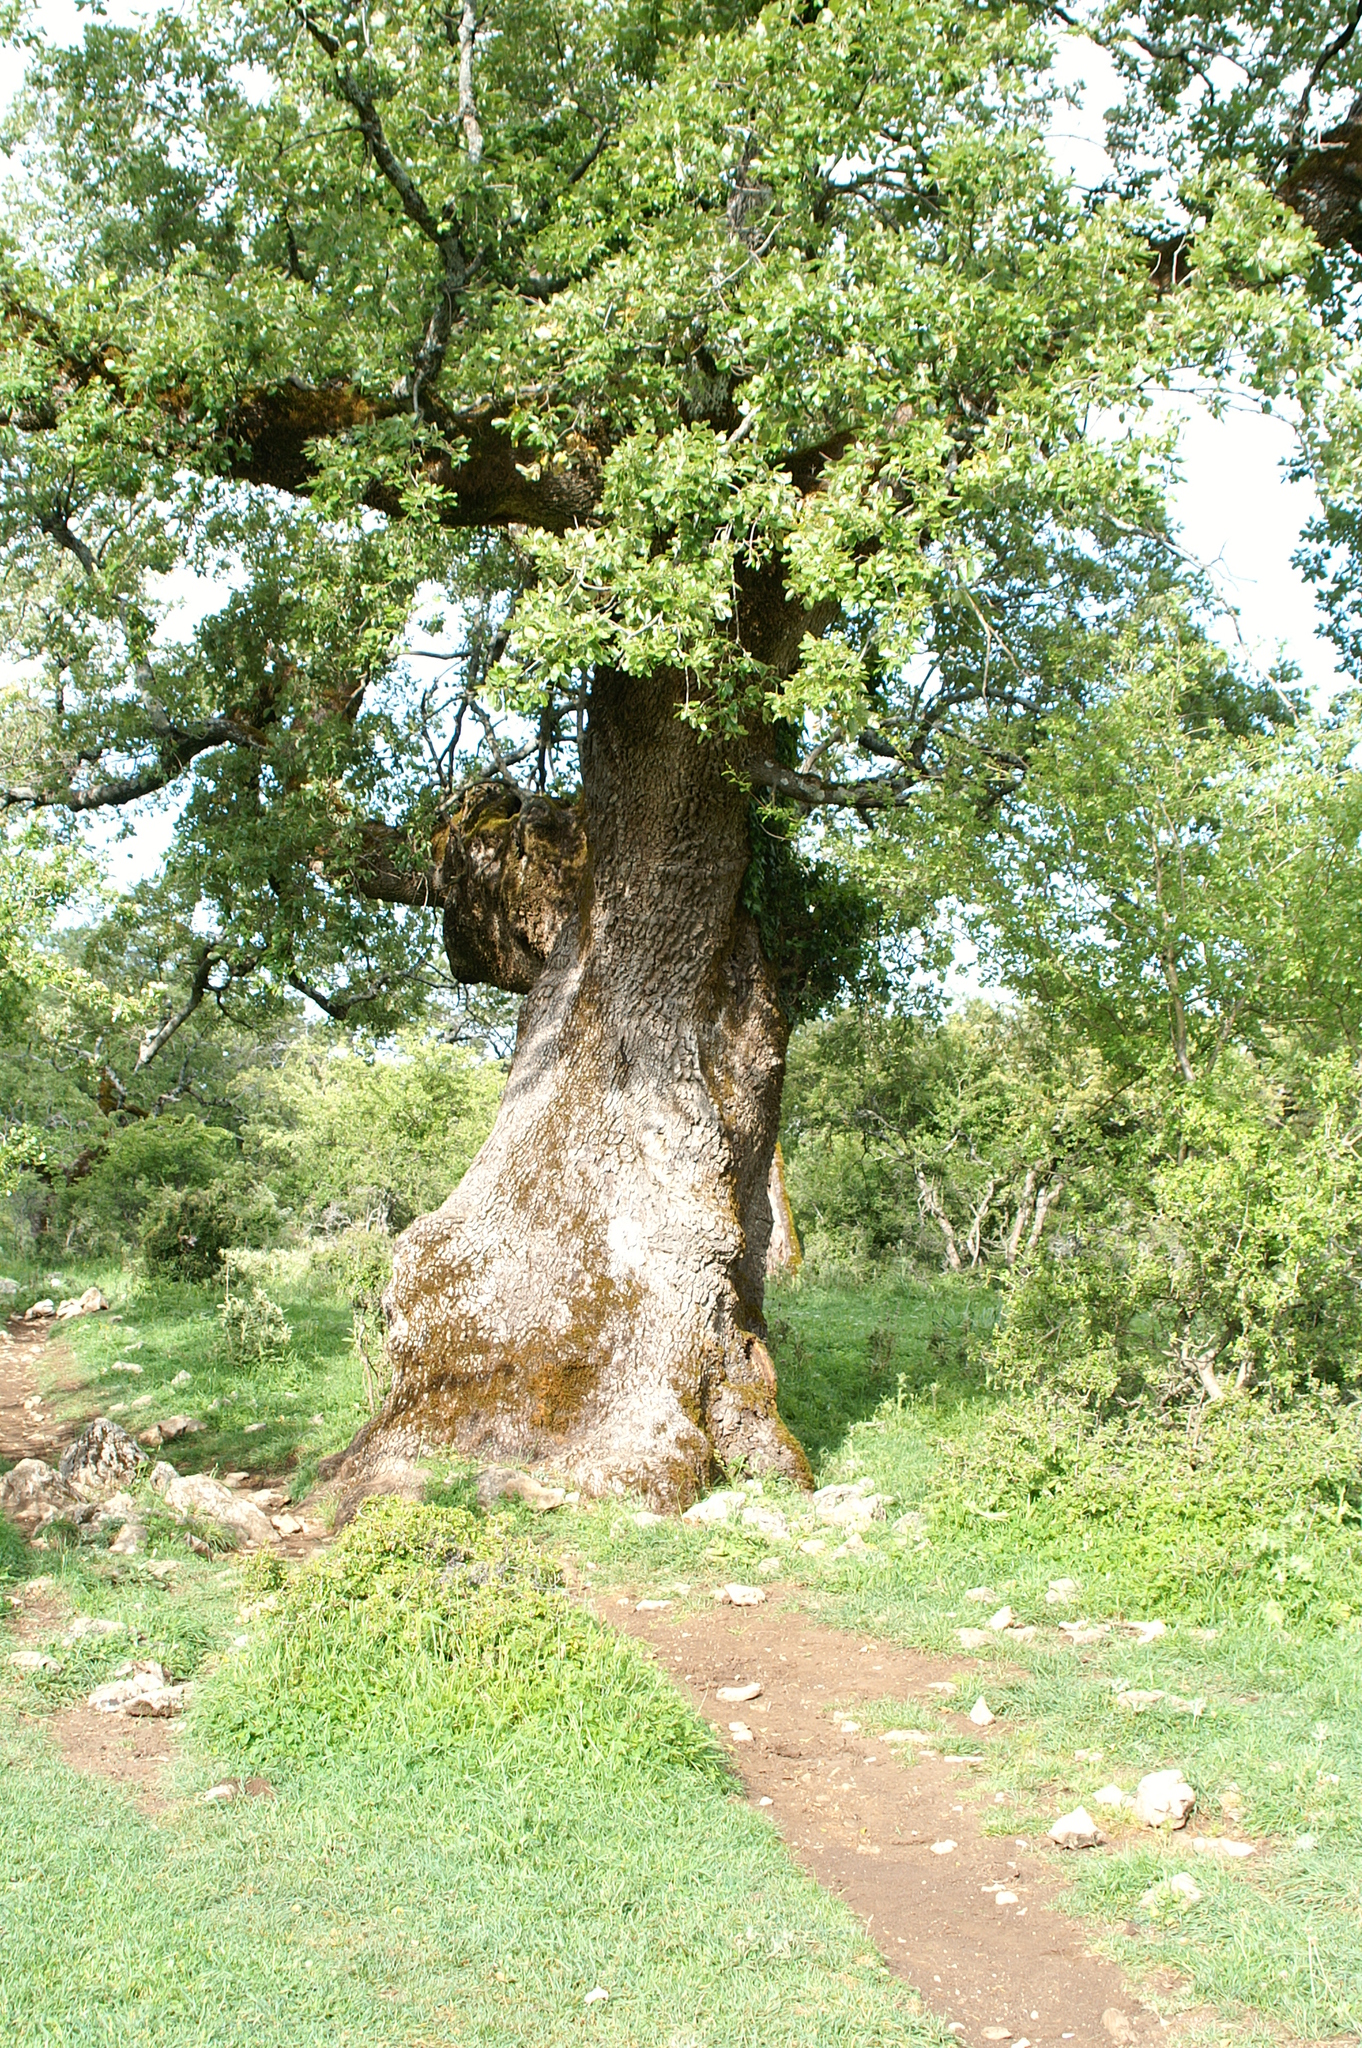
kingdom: Plantae
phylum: Tracheophyta
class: Magnoliopsida
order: Fagales
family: Fagaceae
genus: Quercus
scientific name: Quercus rotundifolia
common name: Holm oak
